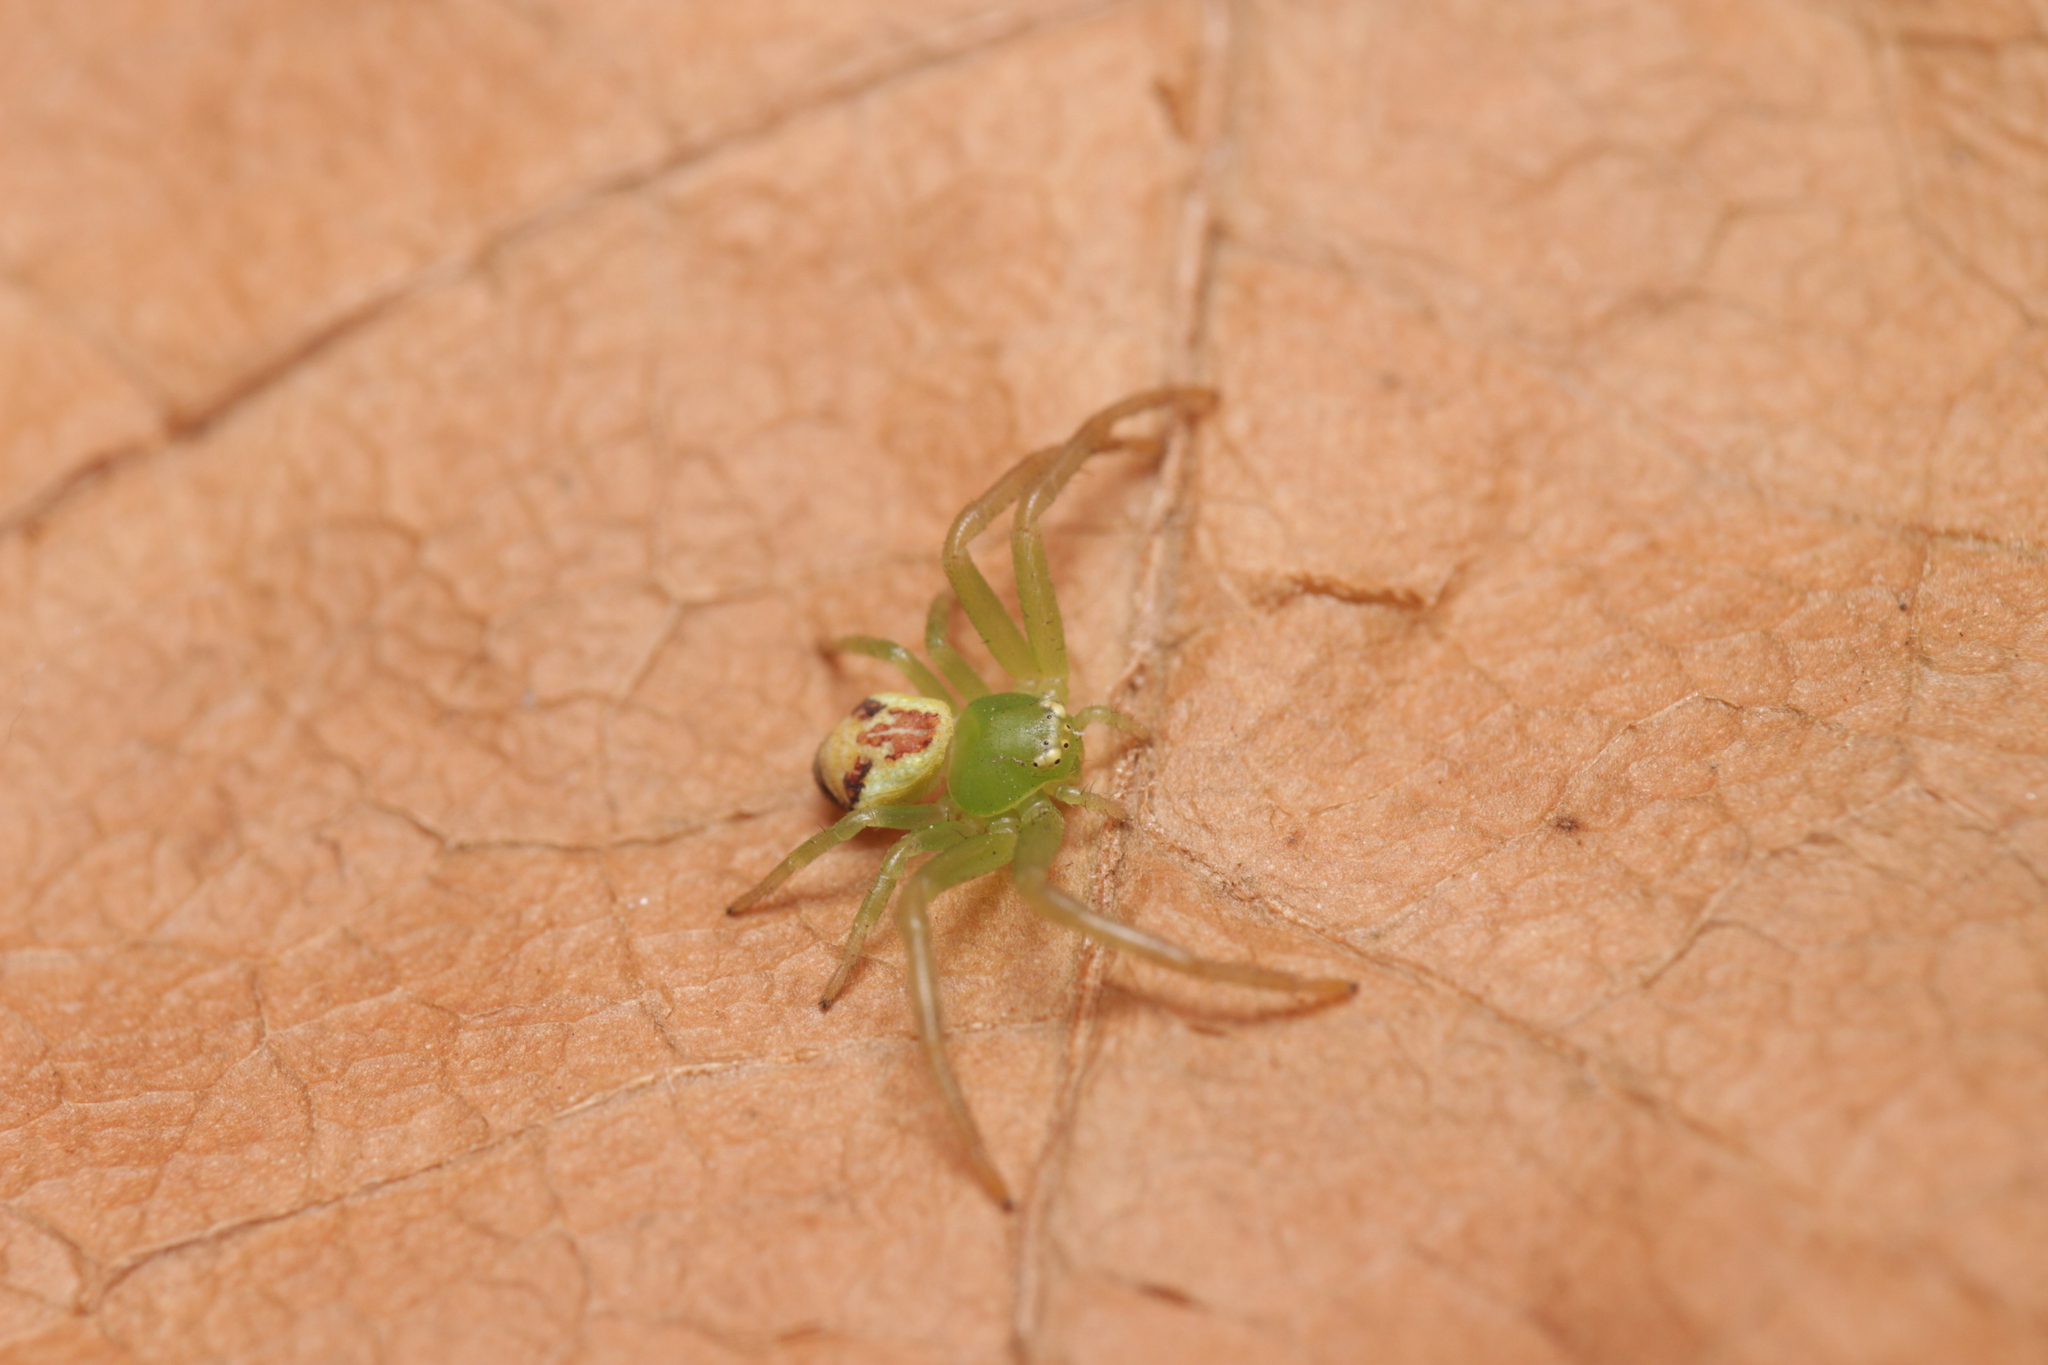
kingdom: Animalia
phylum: Arthropoda
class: Arachnida
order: Araneae
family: Thomisidae
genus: Ebrechtella
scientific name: Ebrechtella tricuspidata
